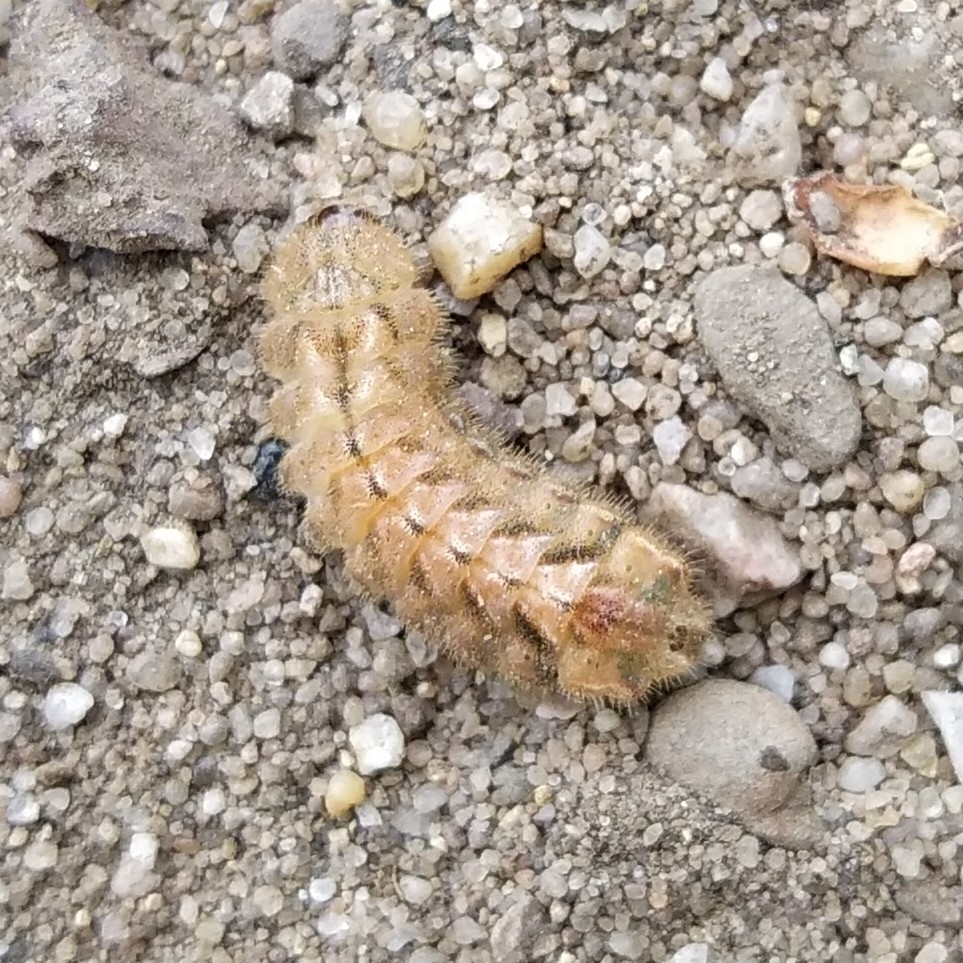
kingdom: Animalia
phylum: Arthropoda
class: Insecta
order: Lepidoptera
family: Lycaenidae
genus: Quercusia
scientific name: Quercusia quercus
